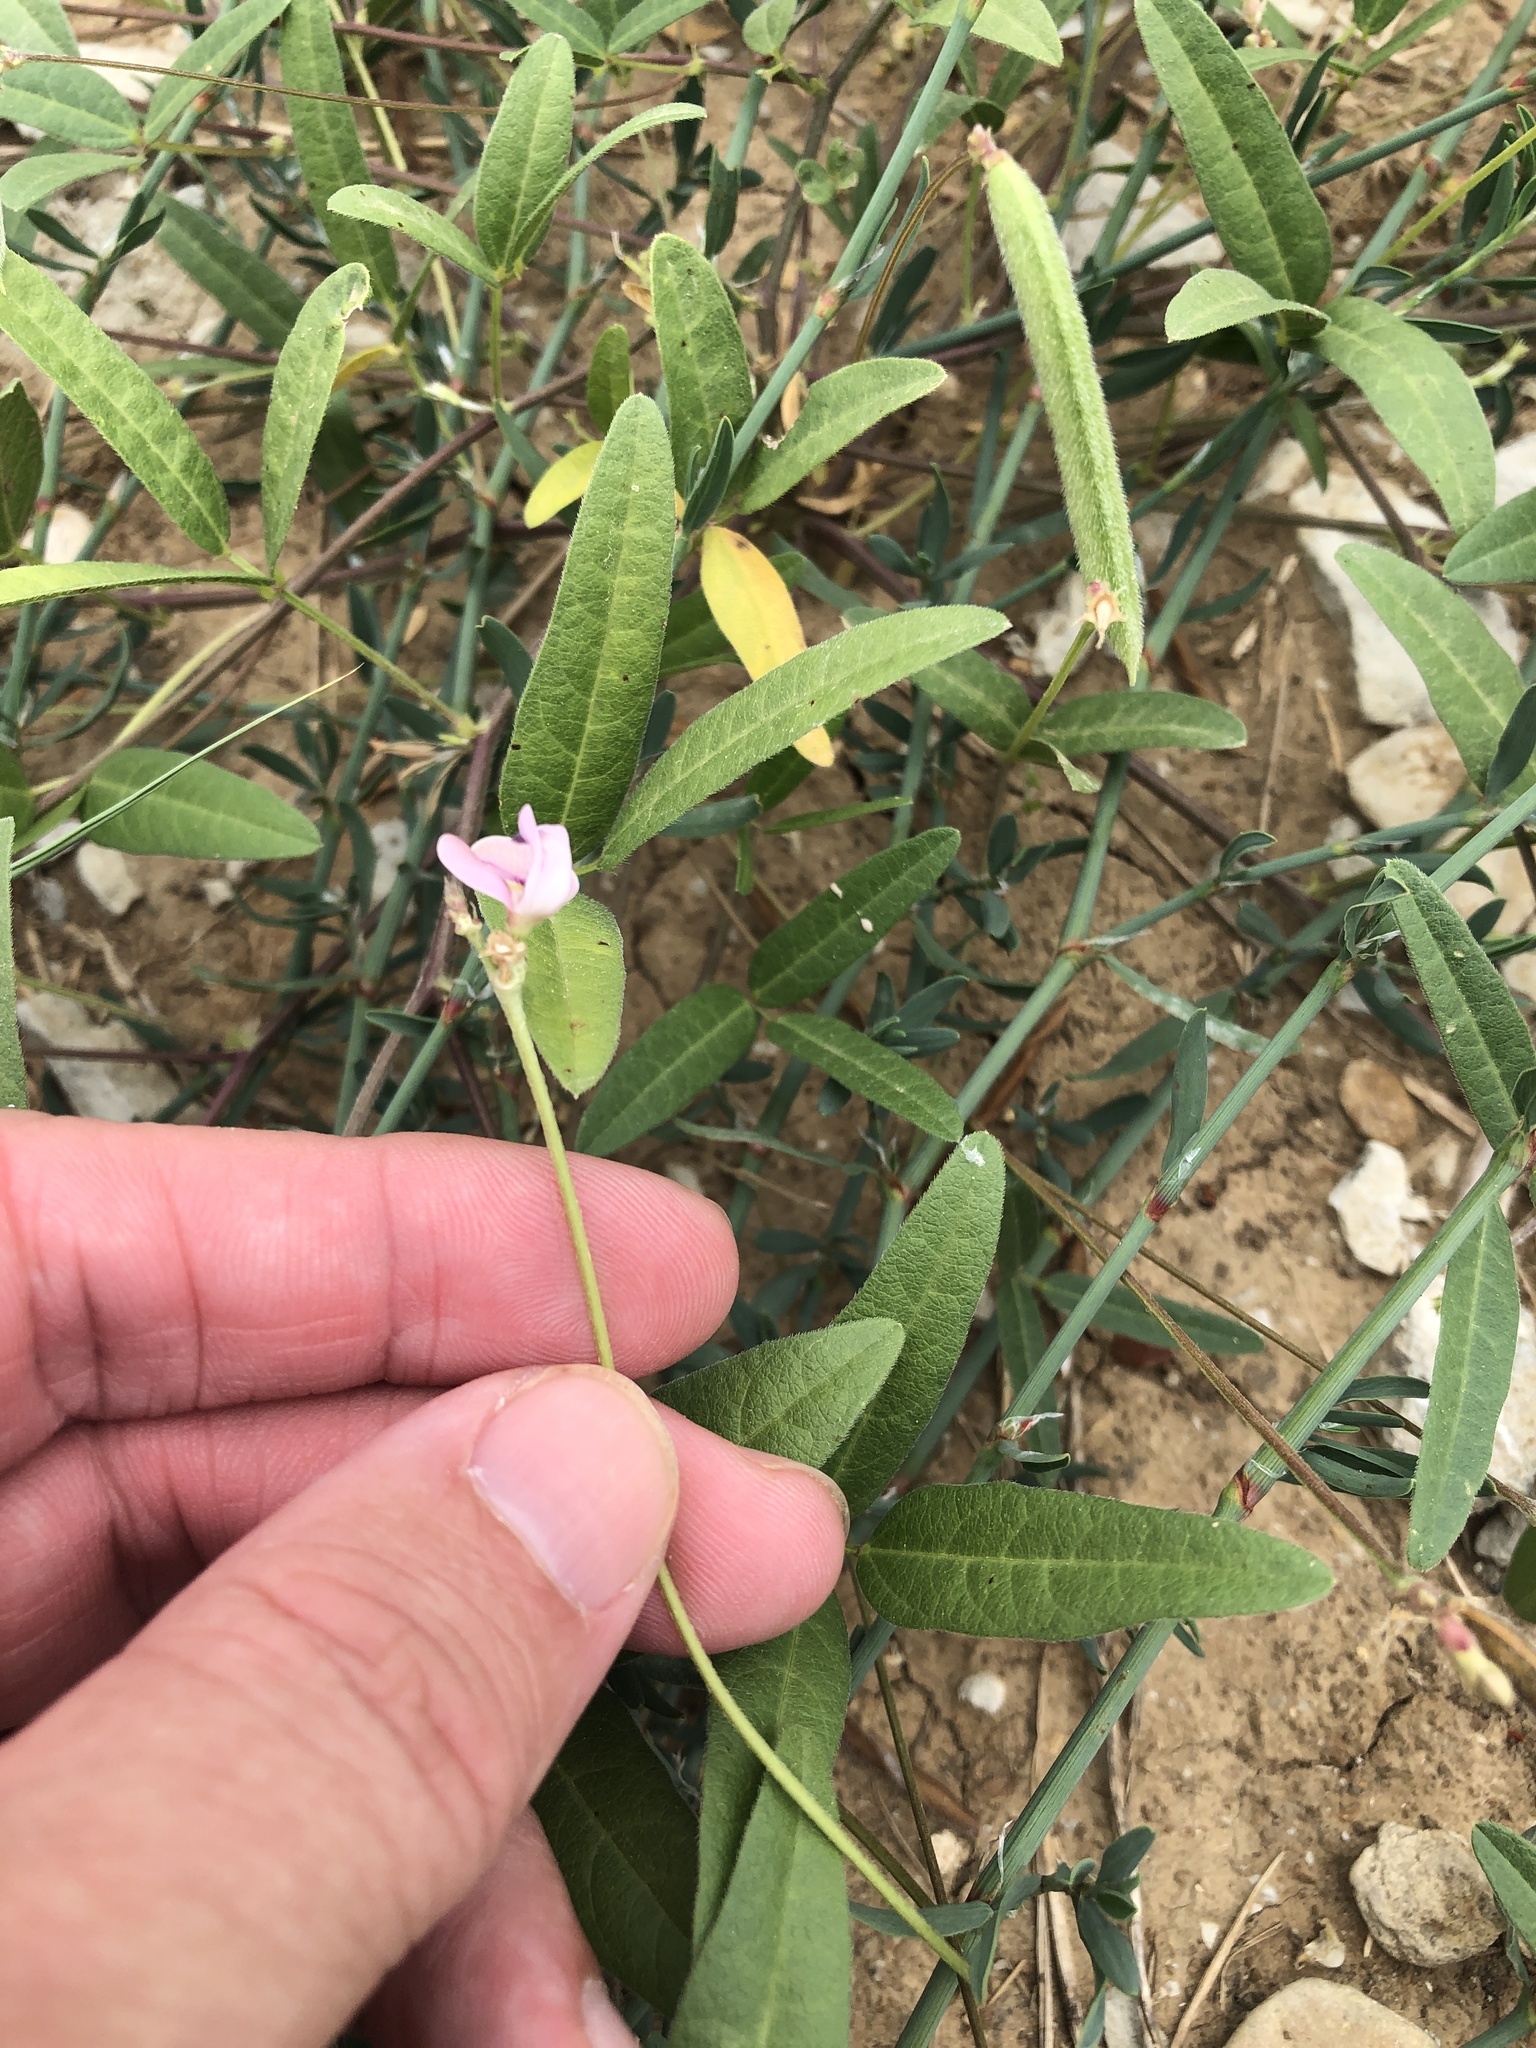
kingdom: Plantae
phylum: Tracheophyta
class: Magnoliopsida
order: Fabales
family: Fabaceae
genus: Strophostyles
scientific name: Strophostyles leiosperma
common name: Smooth-seed wild bean
